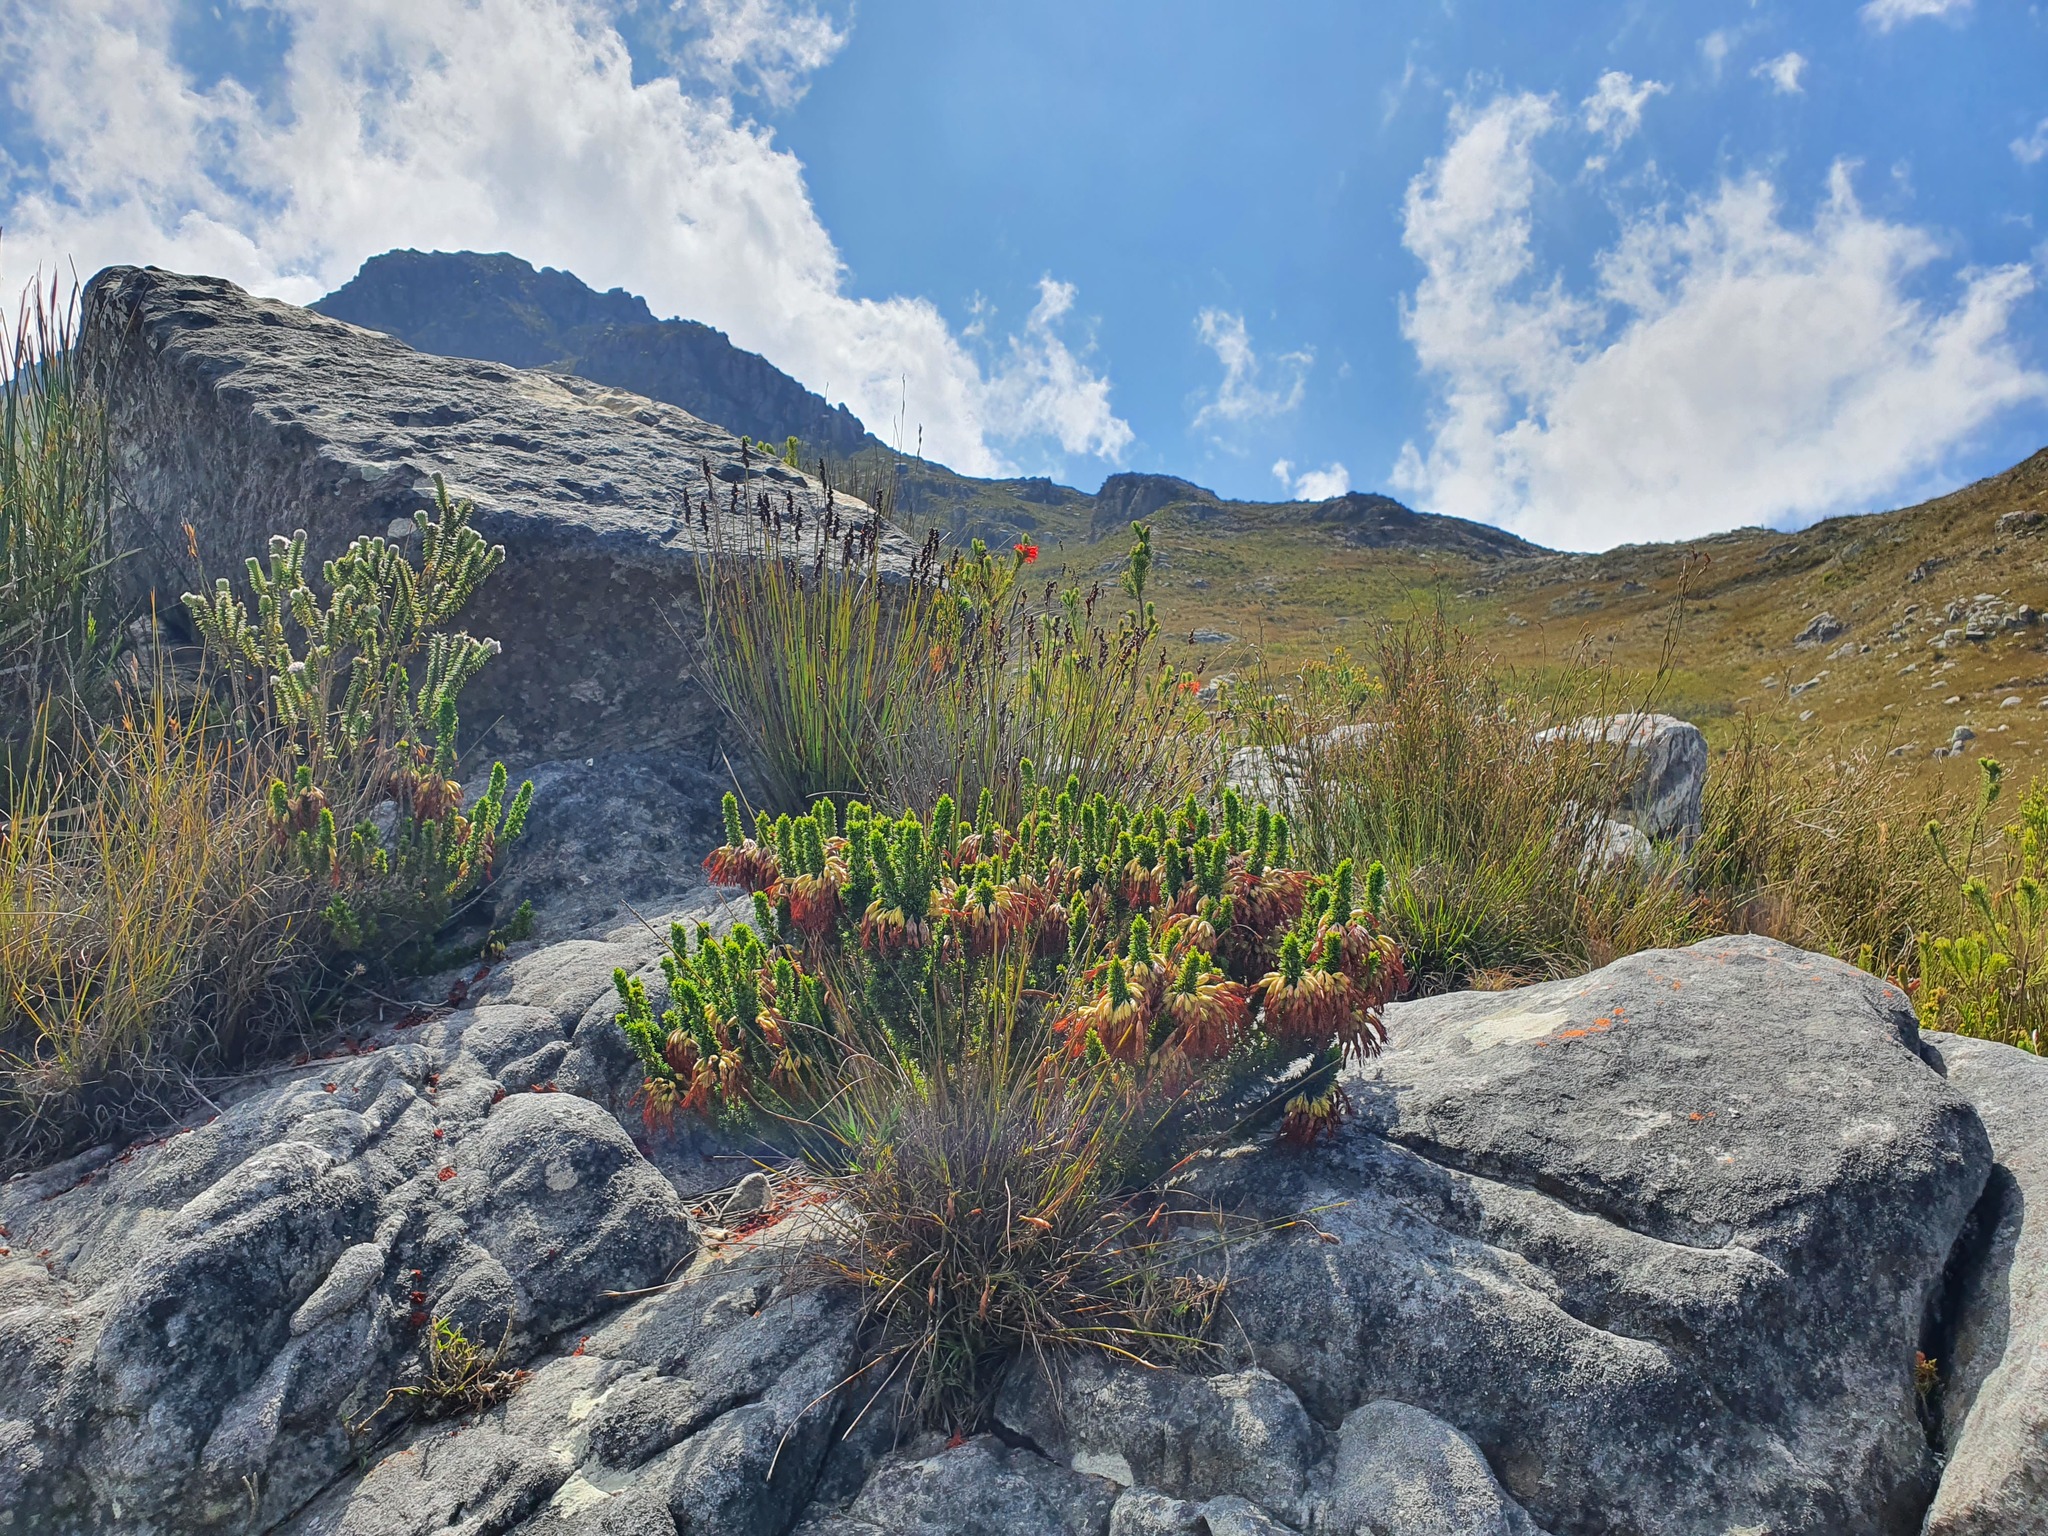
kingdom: Plantae
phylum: Tracheophyta
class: Magnoliopsida
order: Ericales
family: Ericaceae
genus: Erica
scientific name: Erica coccinea
